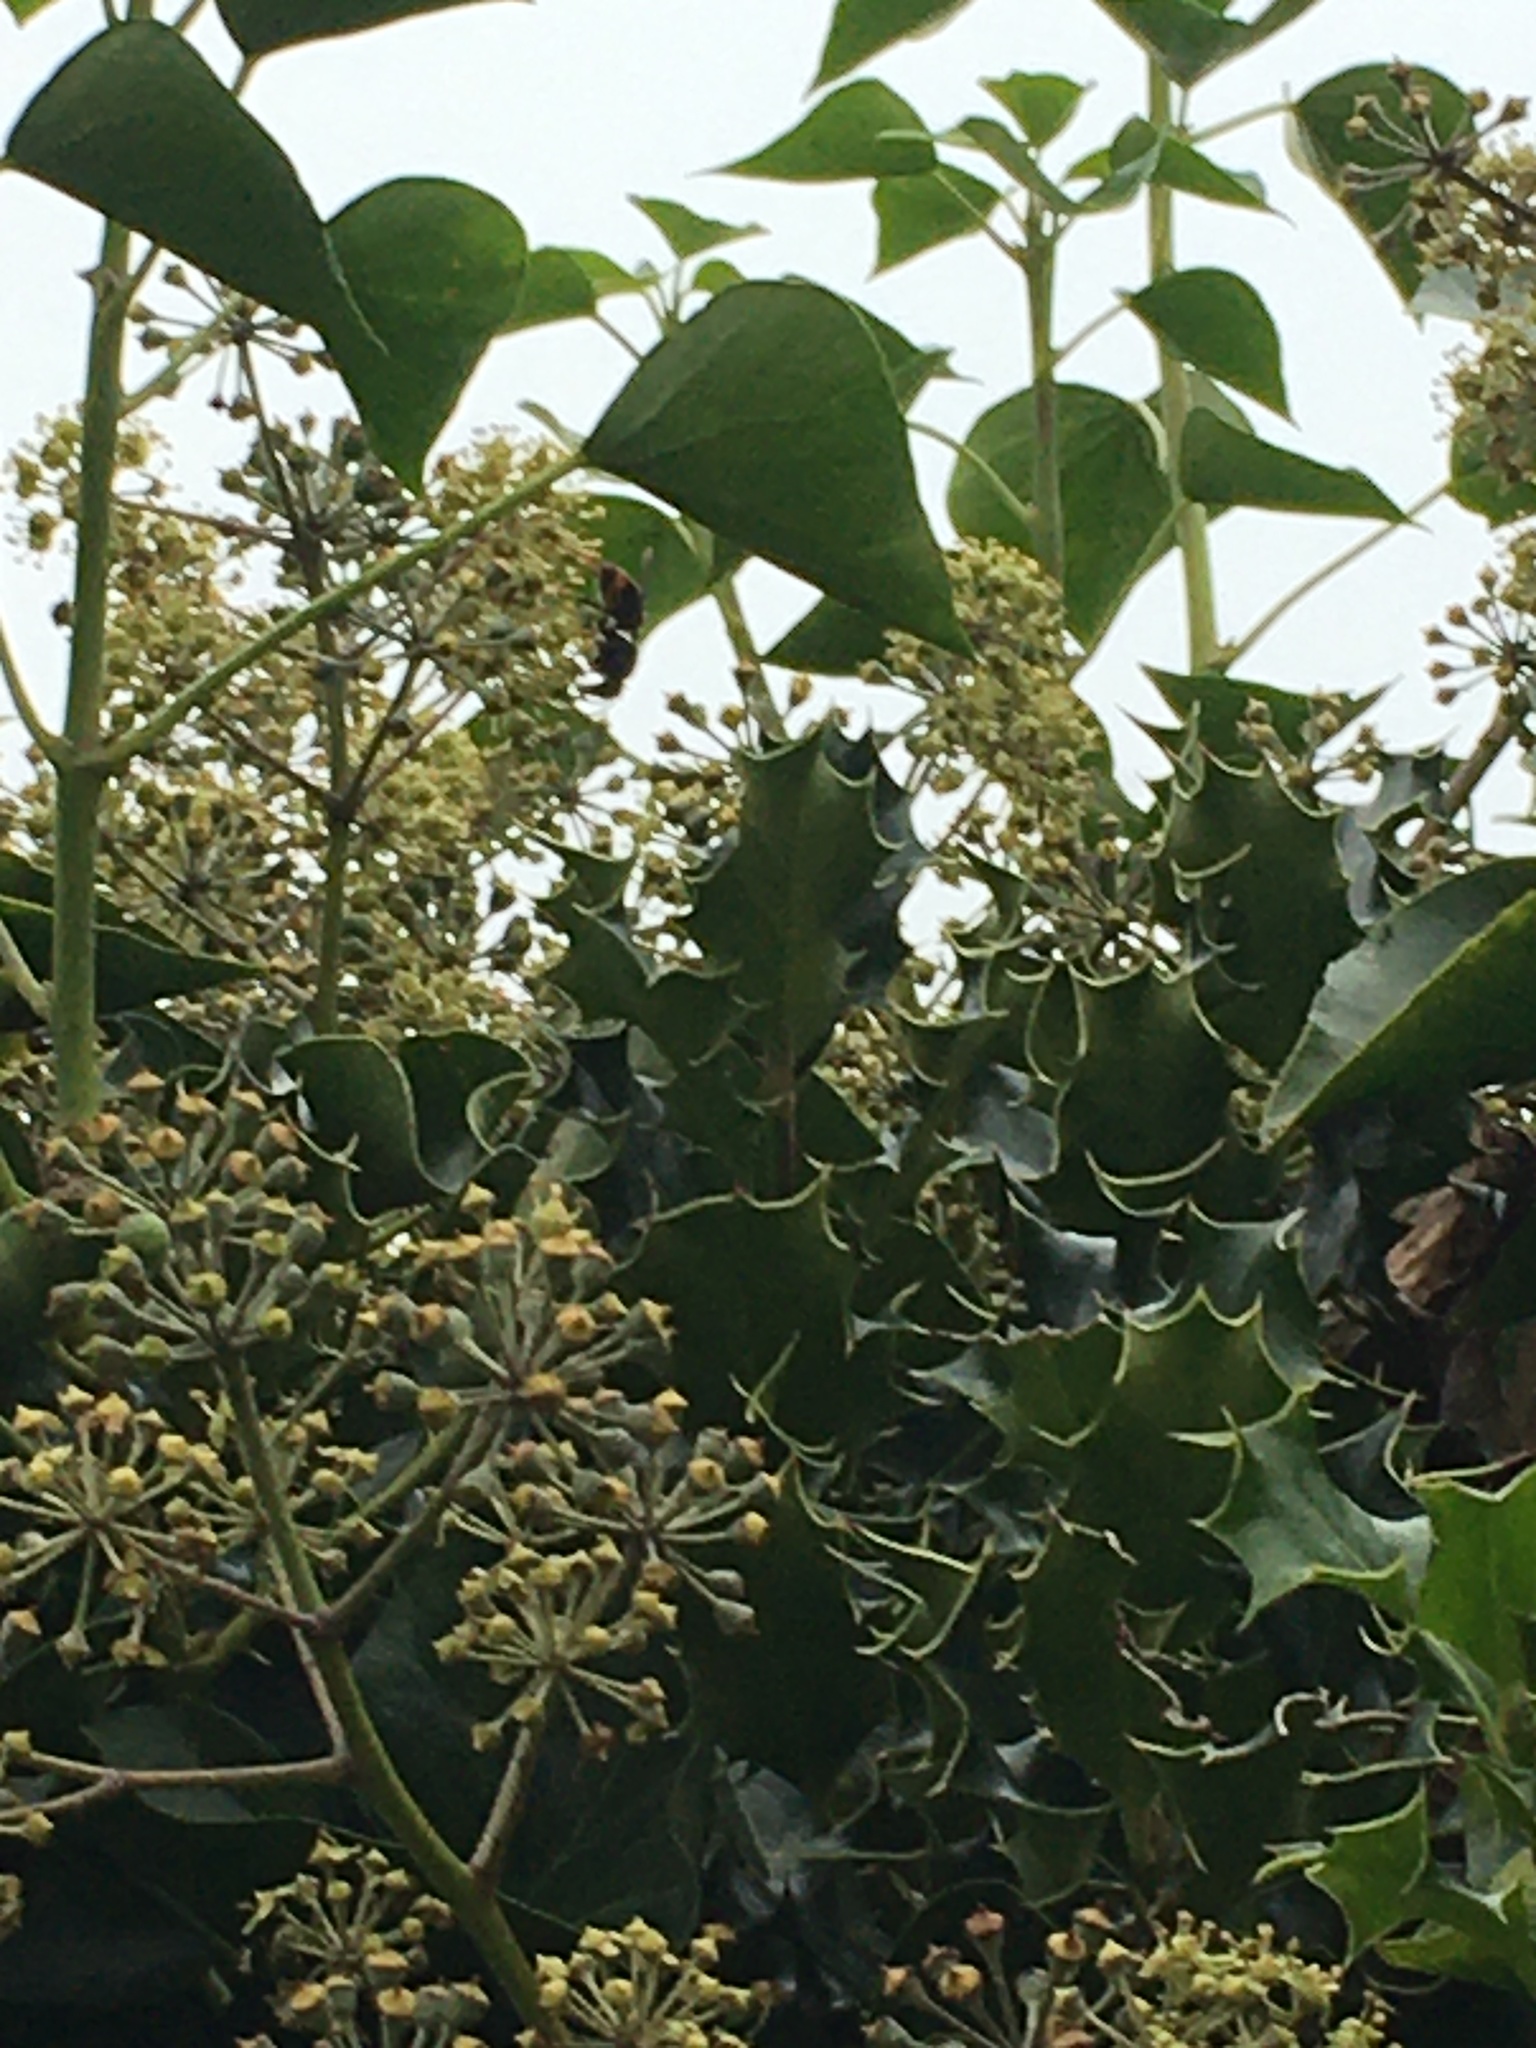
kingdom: Animalia
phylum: Arthropoda
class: Insecta
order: Hymenoptera
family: Vespidae
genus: Vespa
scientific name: Vespa velutina
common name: Asian hornet
